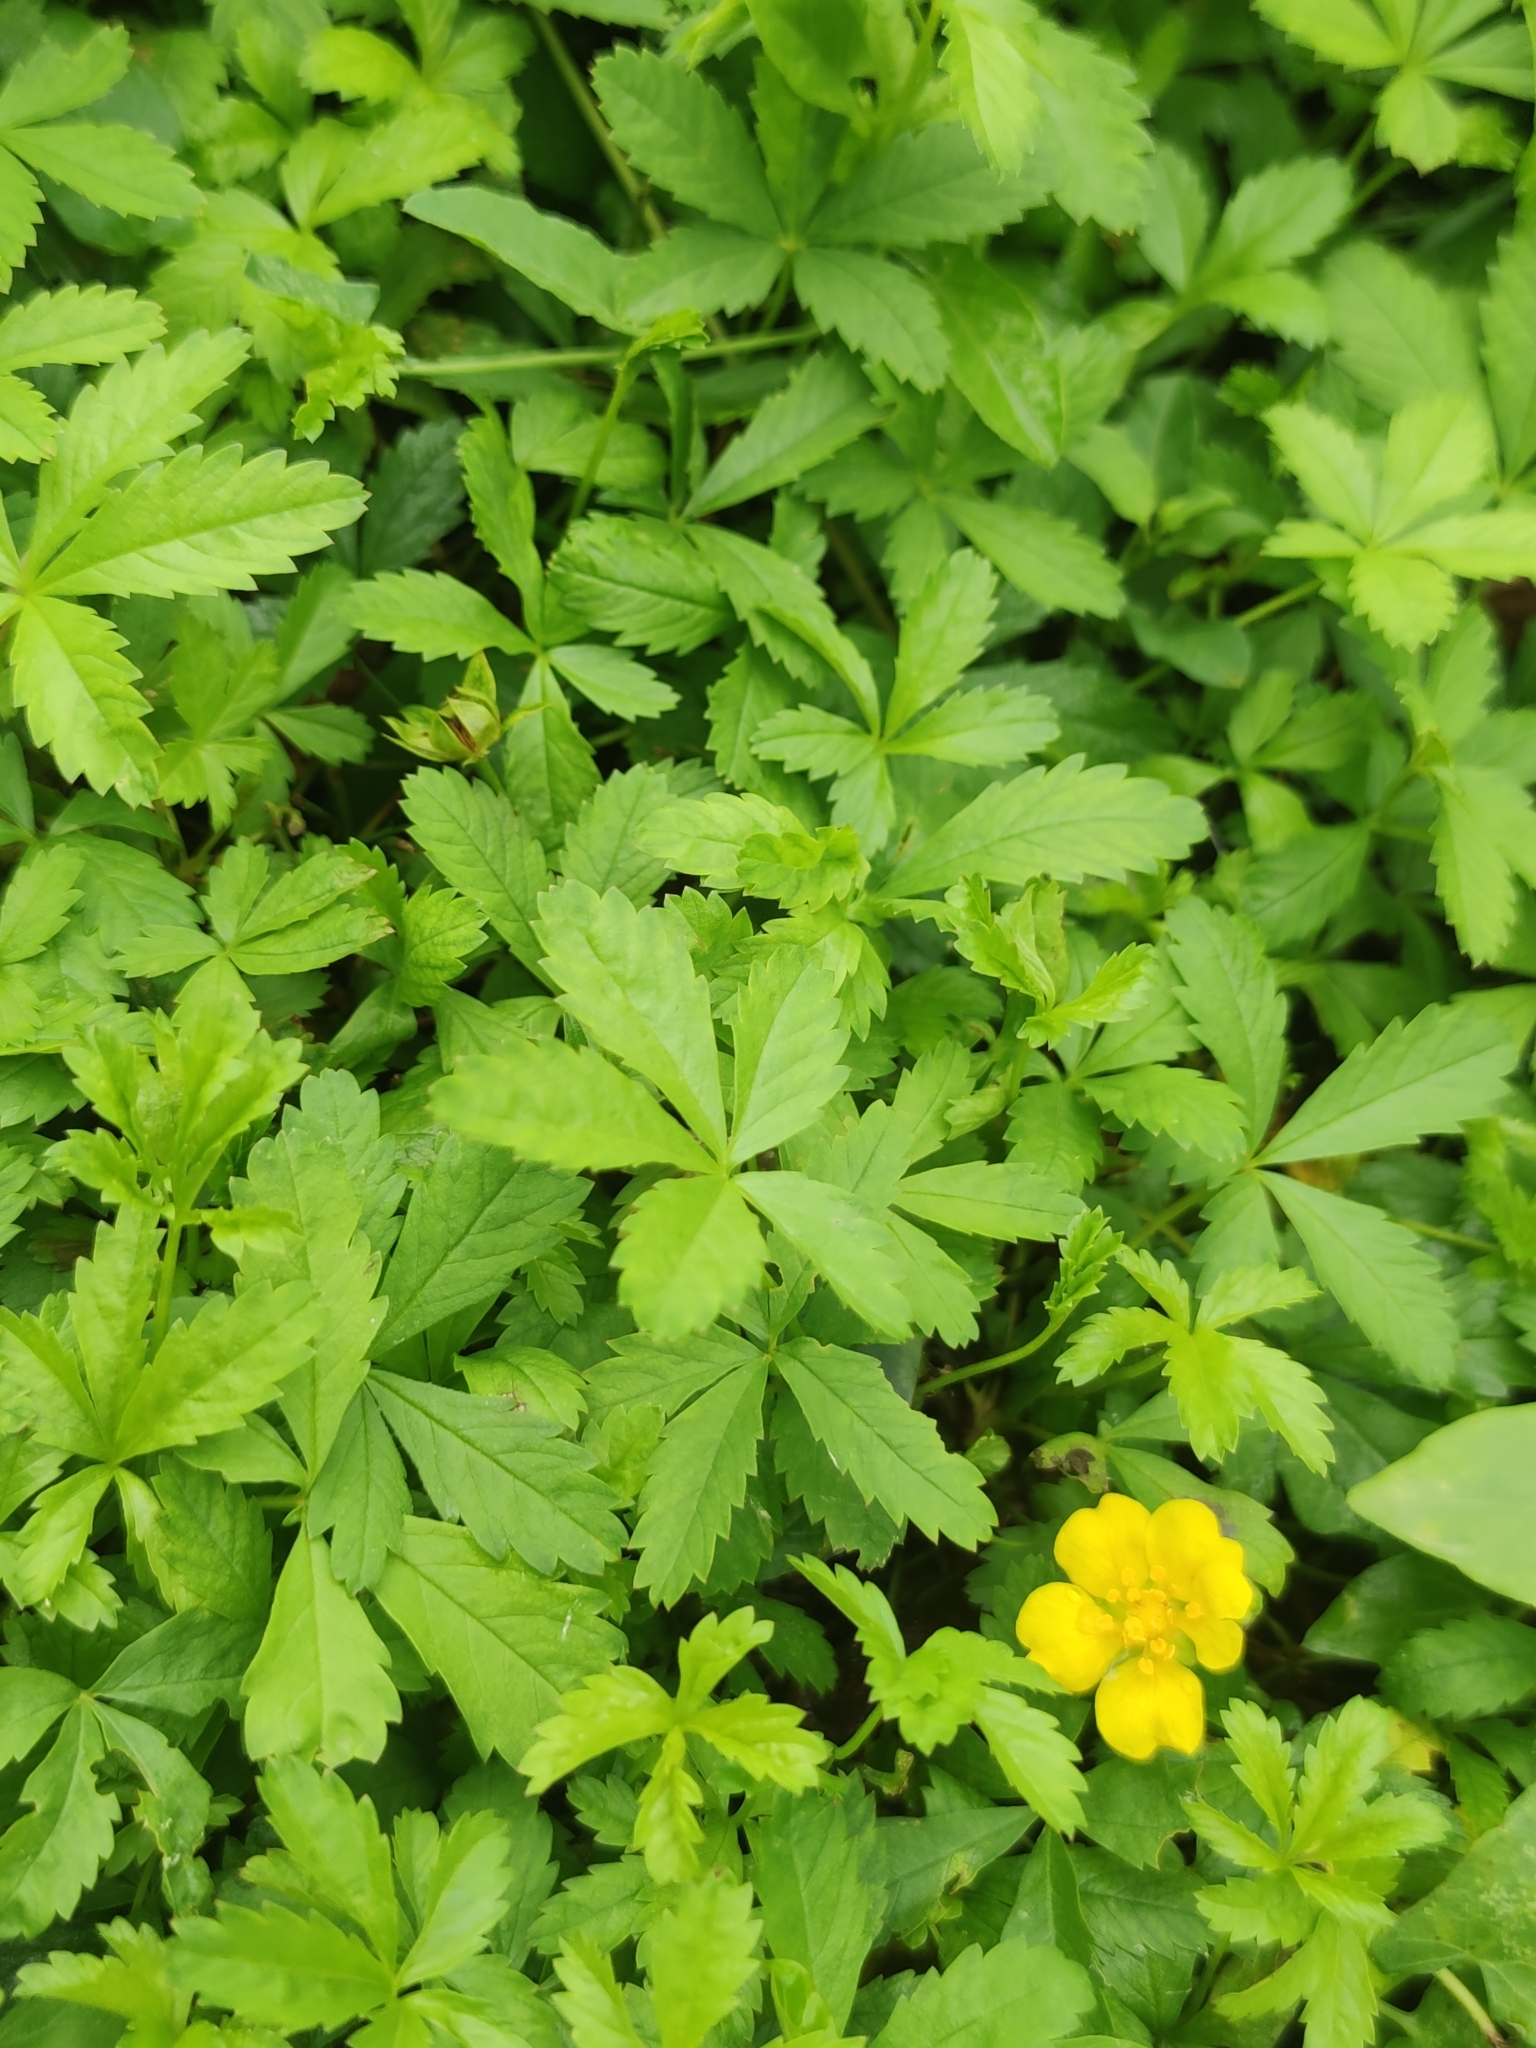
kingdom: Plantae
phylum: Tracheophyta
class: Magnoliopsida
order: Rosales
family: Rosaceae
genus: Potentilla
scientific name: Potentilla reptans
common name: Creeping cinquefoil
